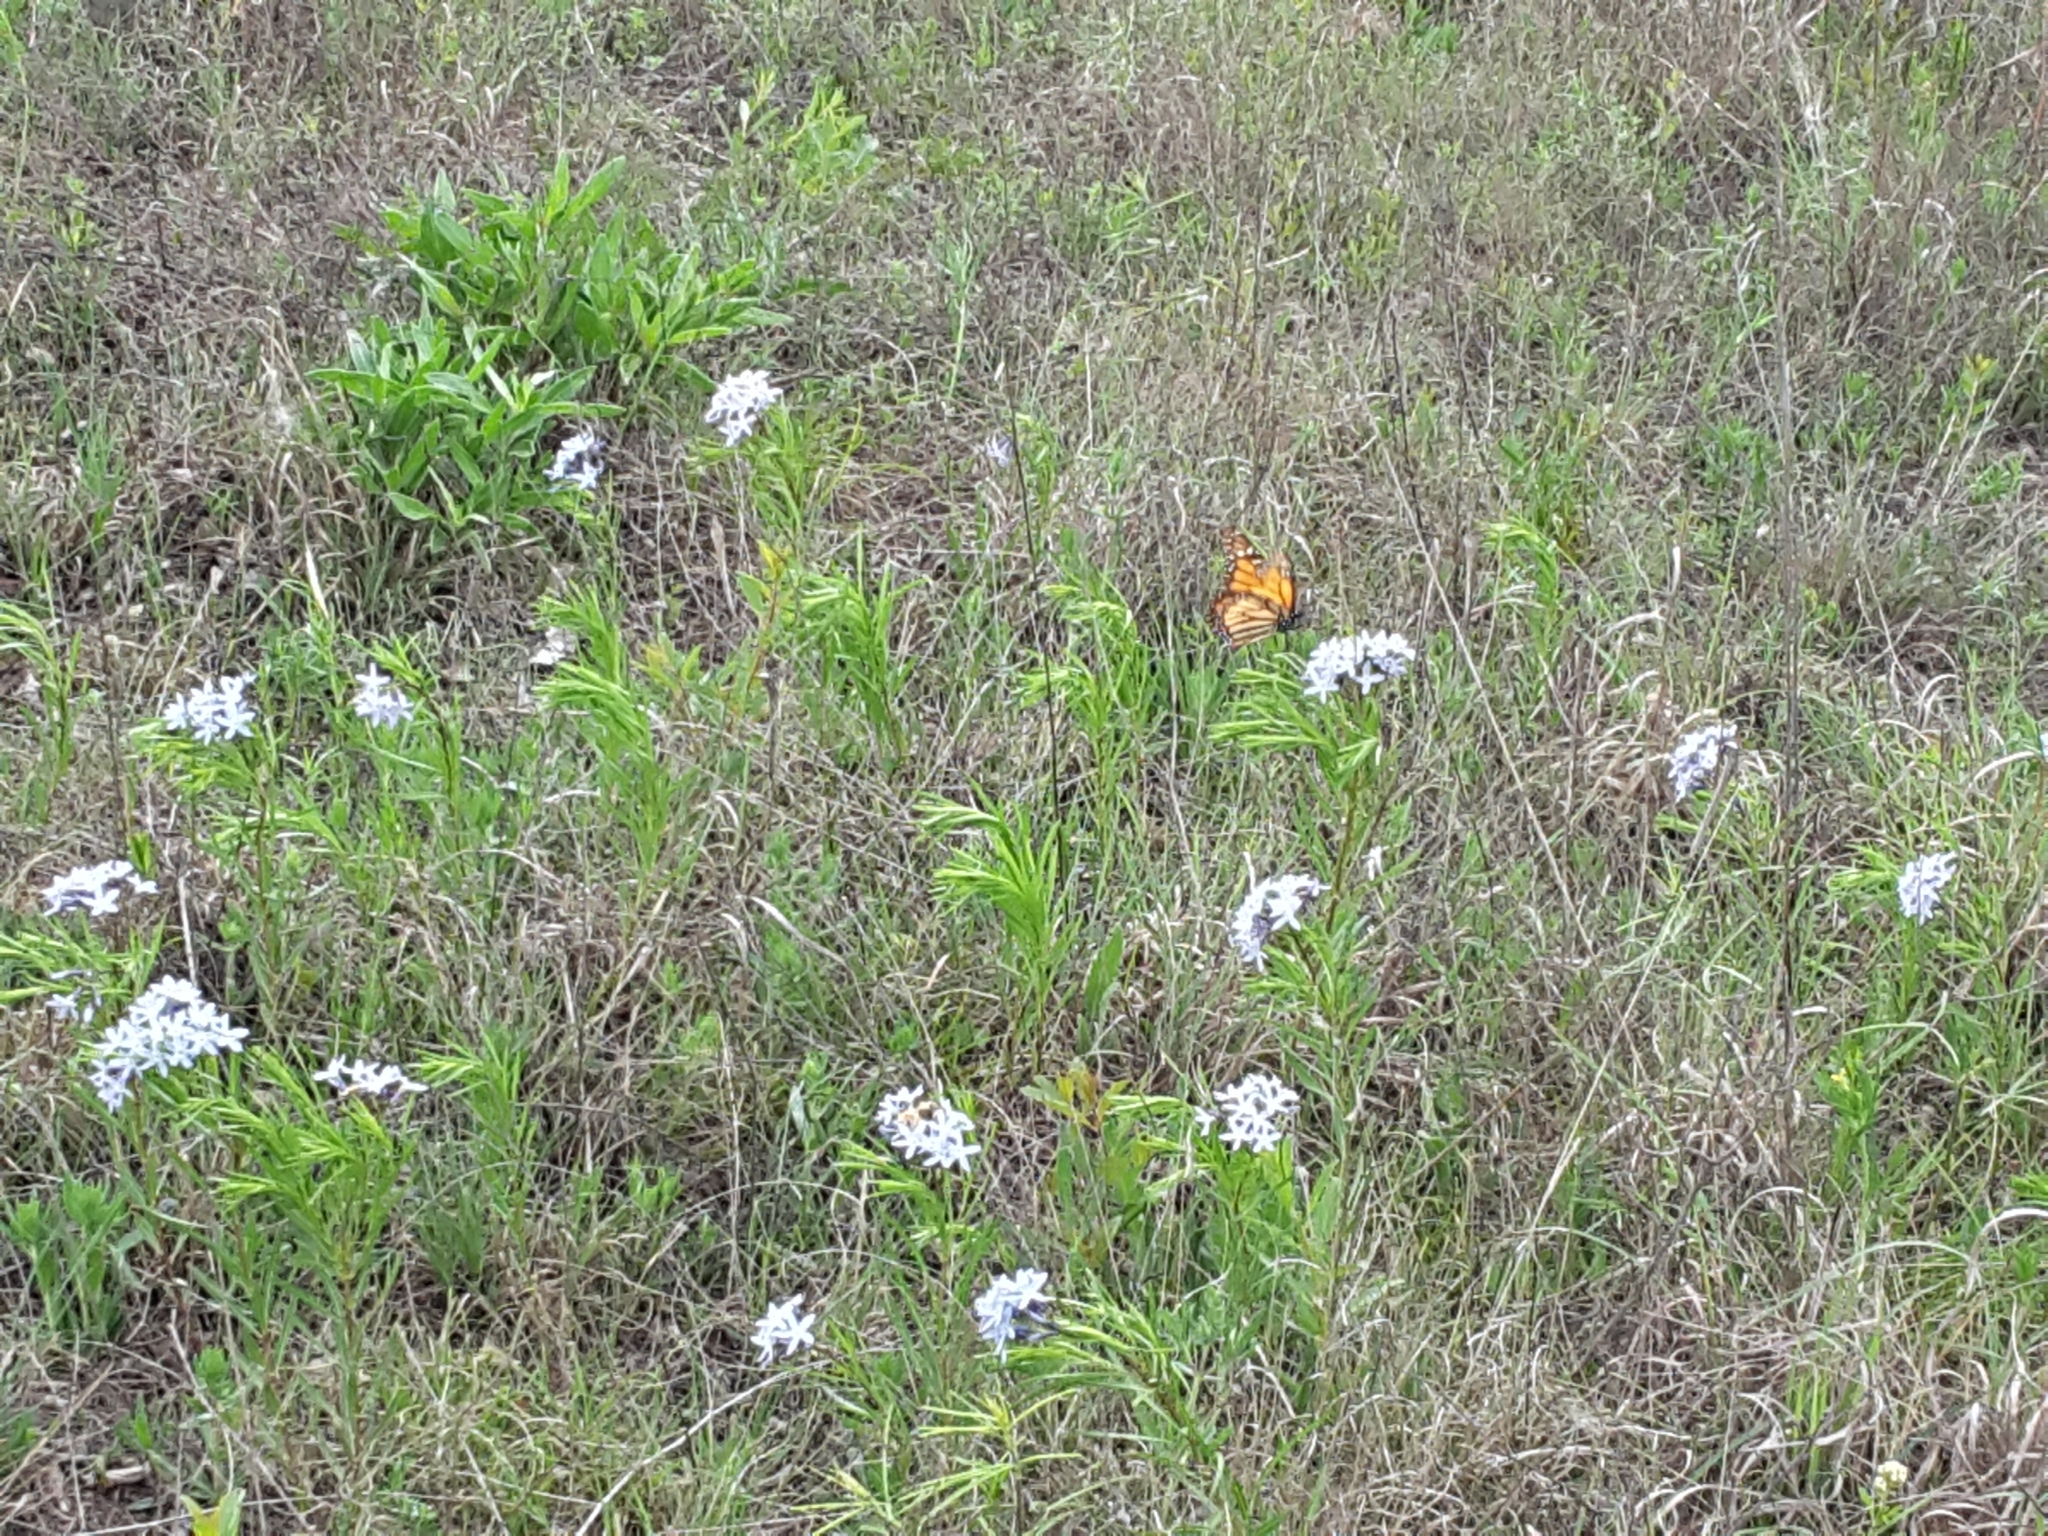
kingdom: Animalia
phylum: Arthropoda
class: Insecta
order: Lepidoptera
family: Nymphalidae
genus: Danaus
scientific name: Danaus plexippus
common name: Monarch
